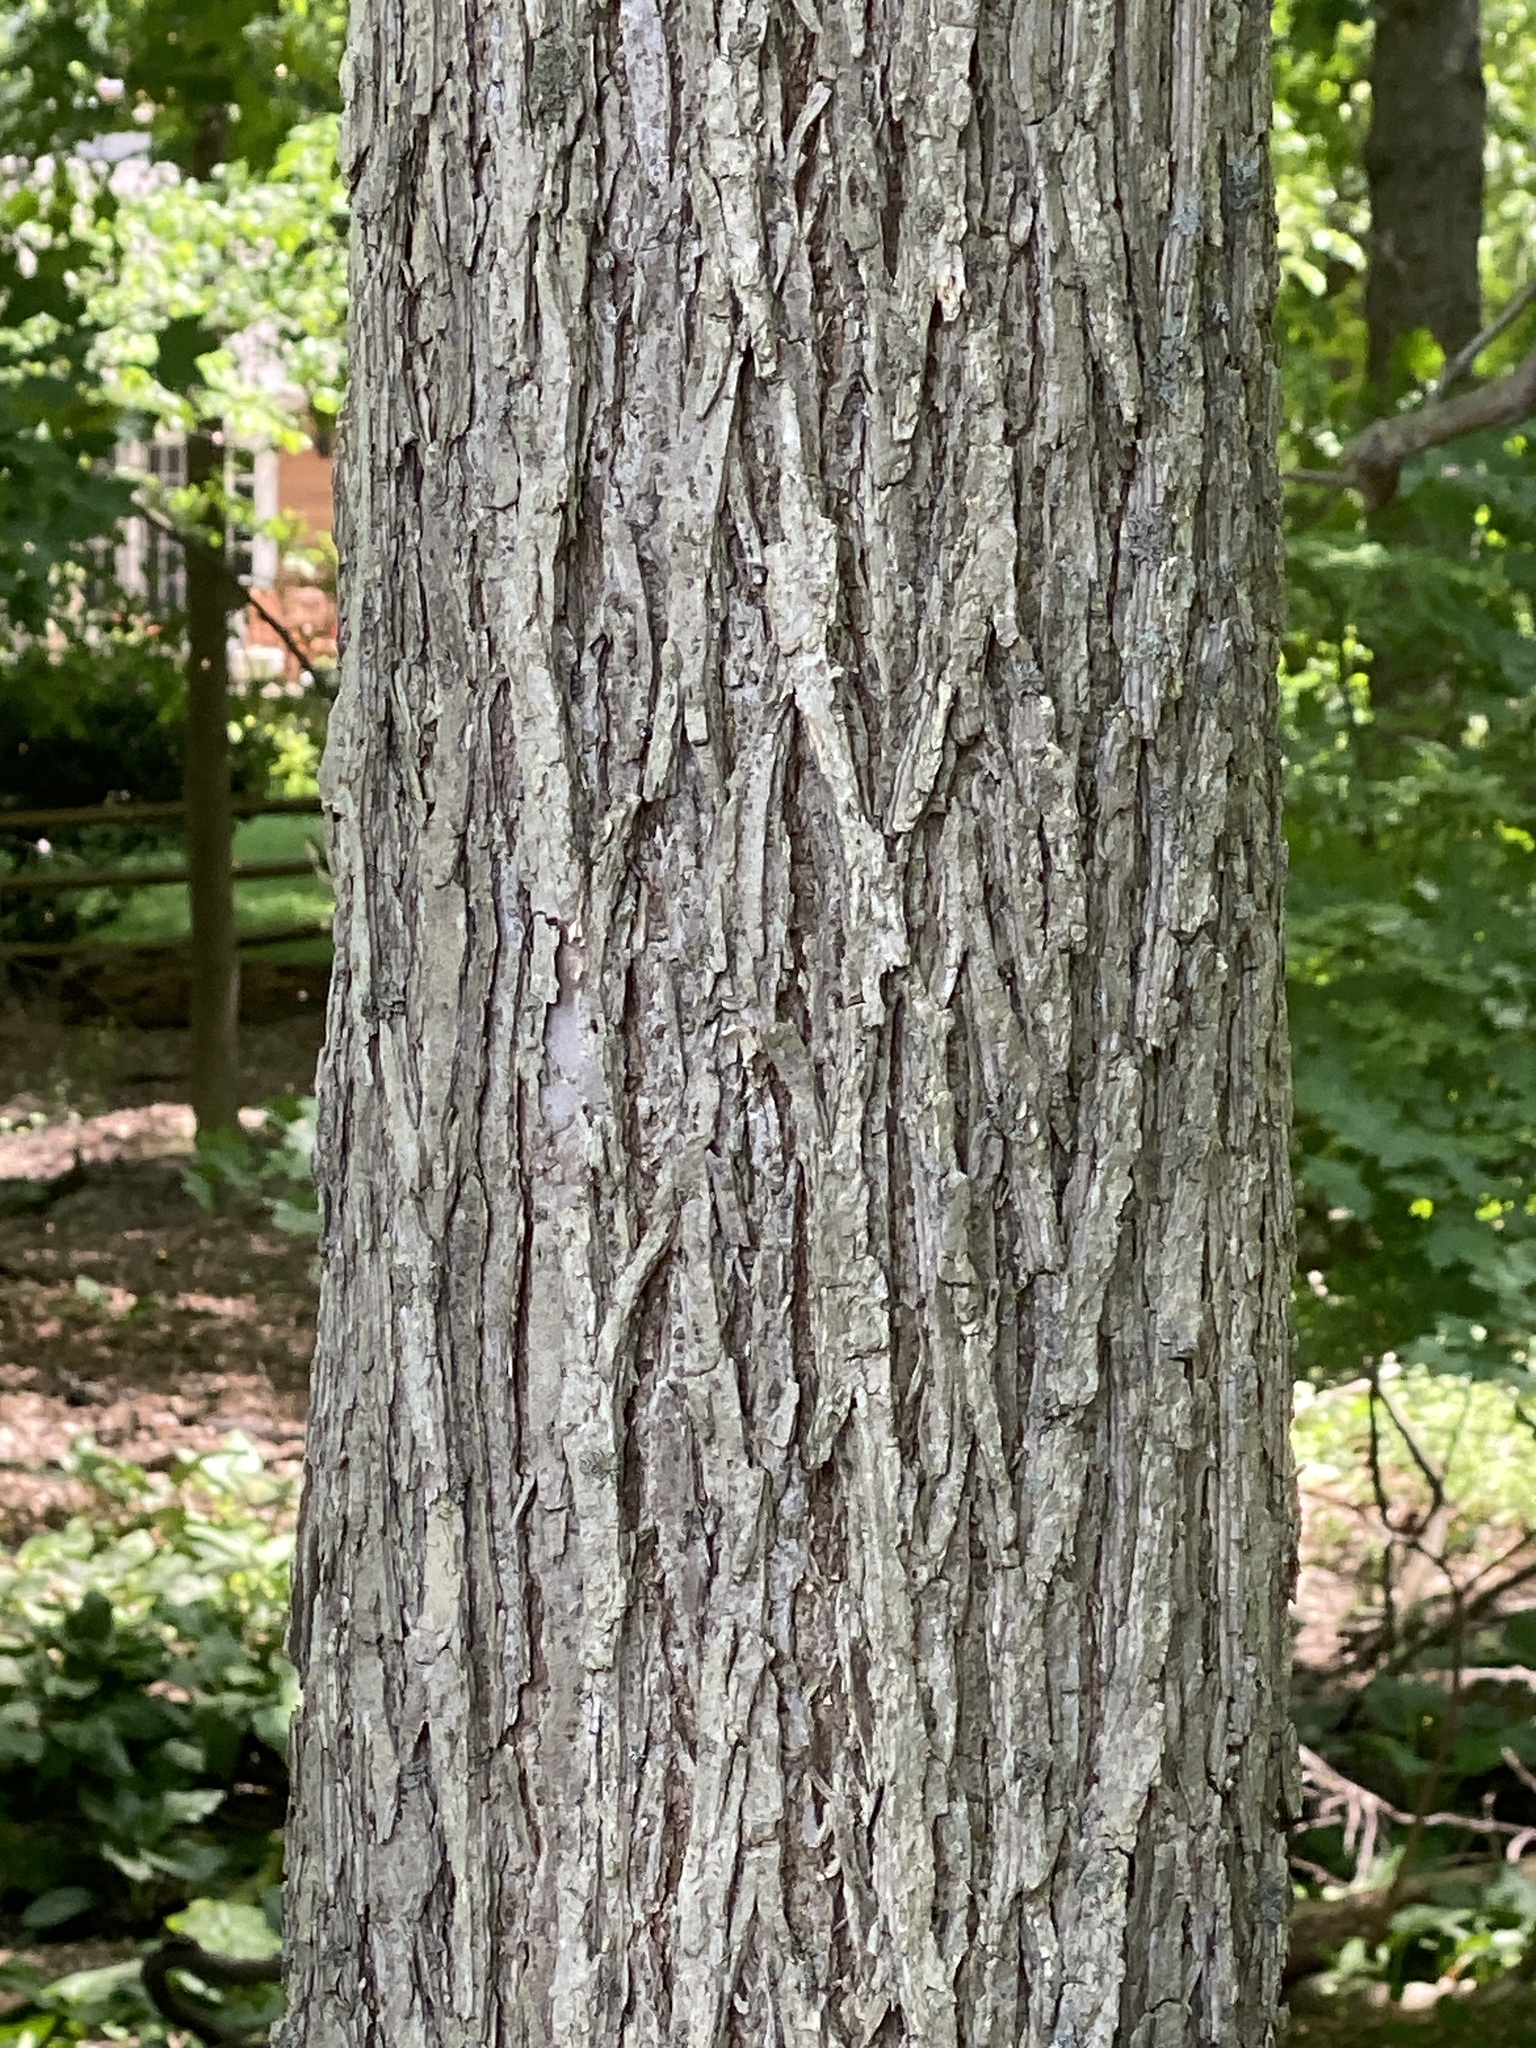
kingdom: Plantae
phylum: Tracheophyta
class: Magnoliopsida
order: Rosales
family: Ulmaceae
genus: Ulmus
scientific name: Ulmus americana
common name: American elm
